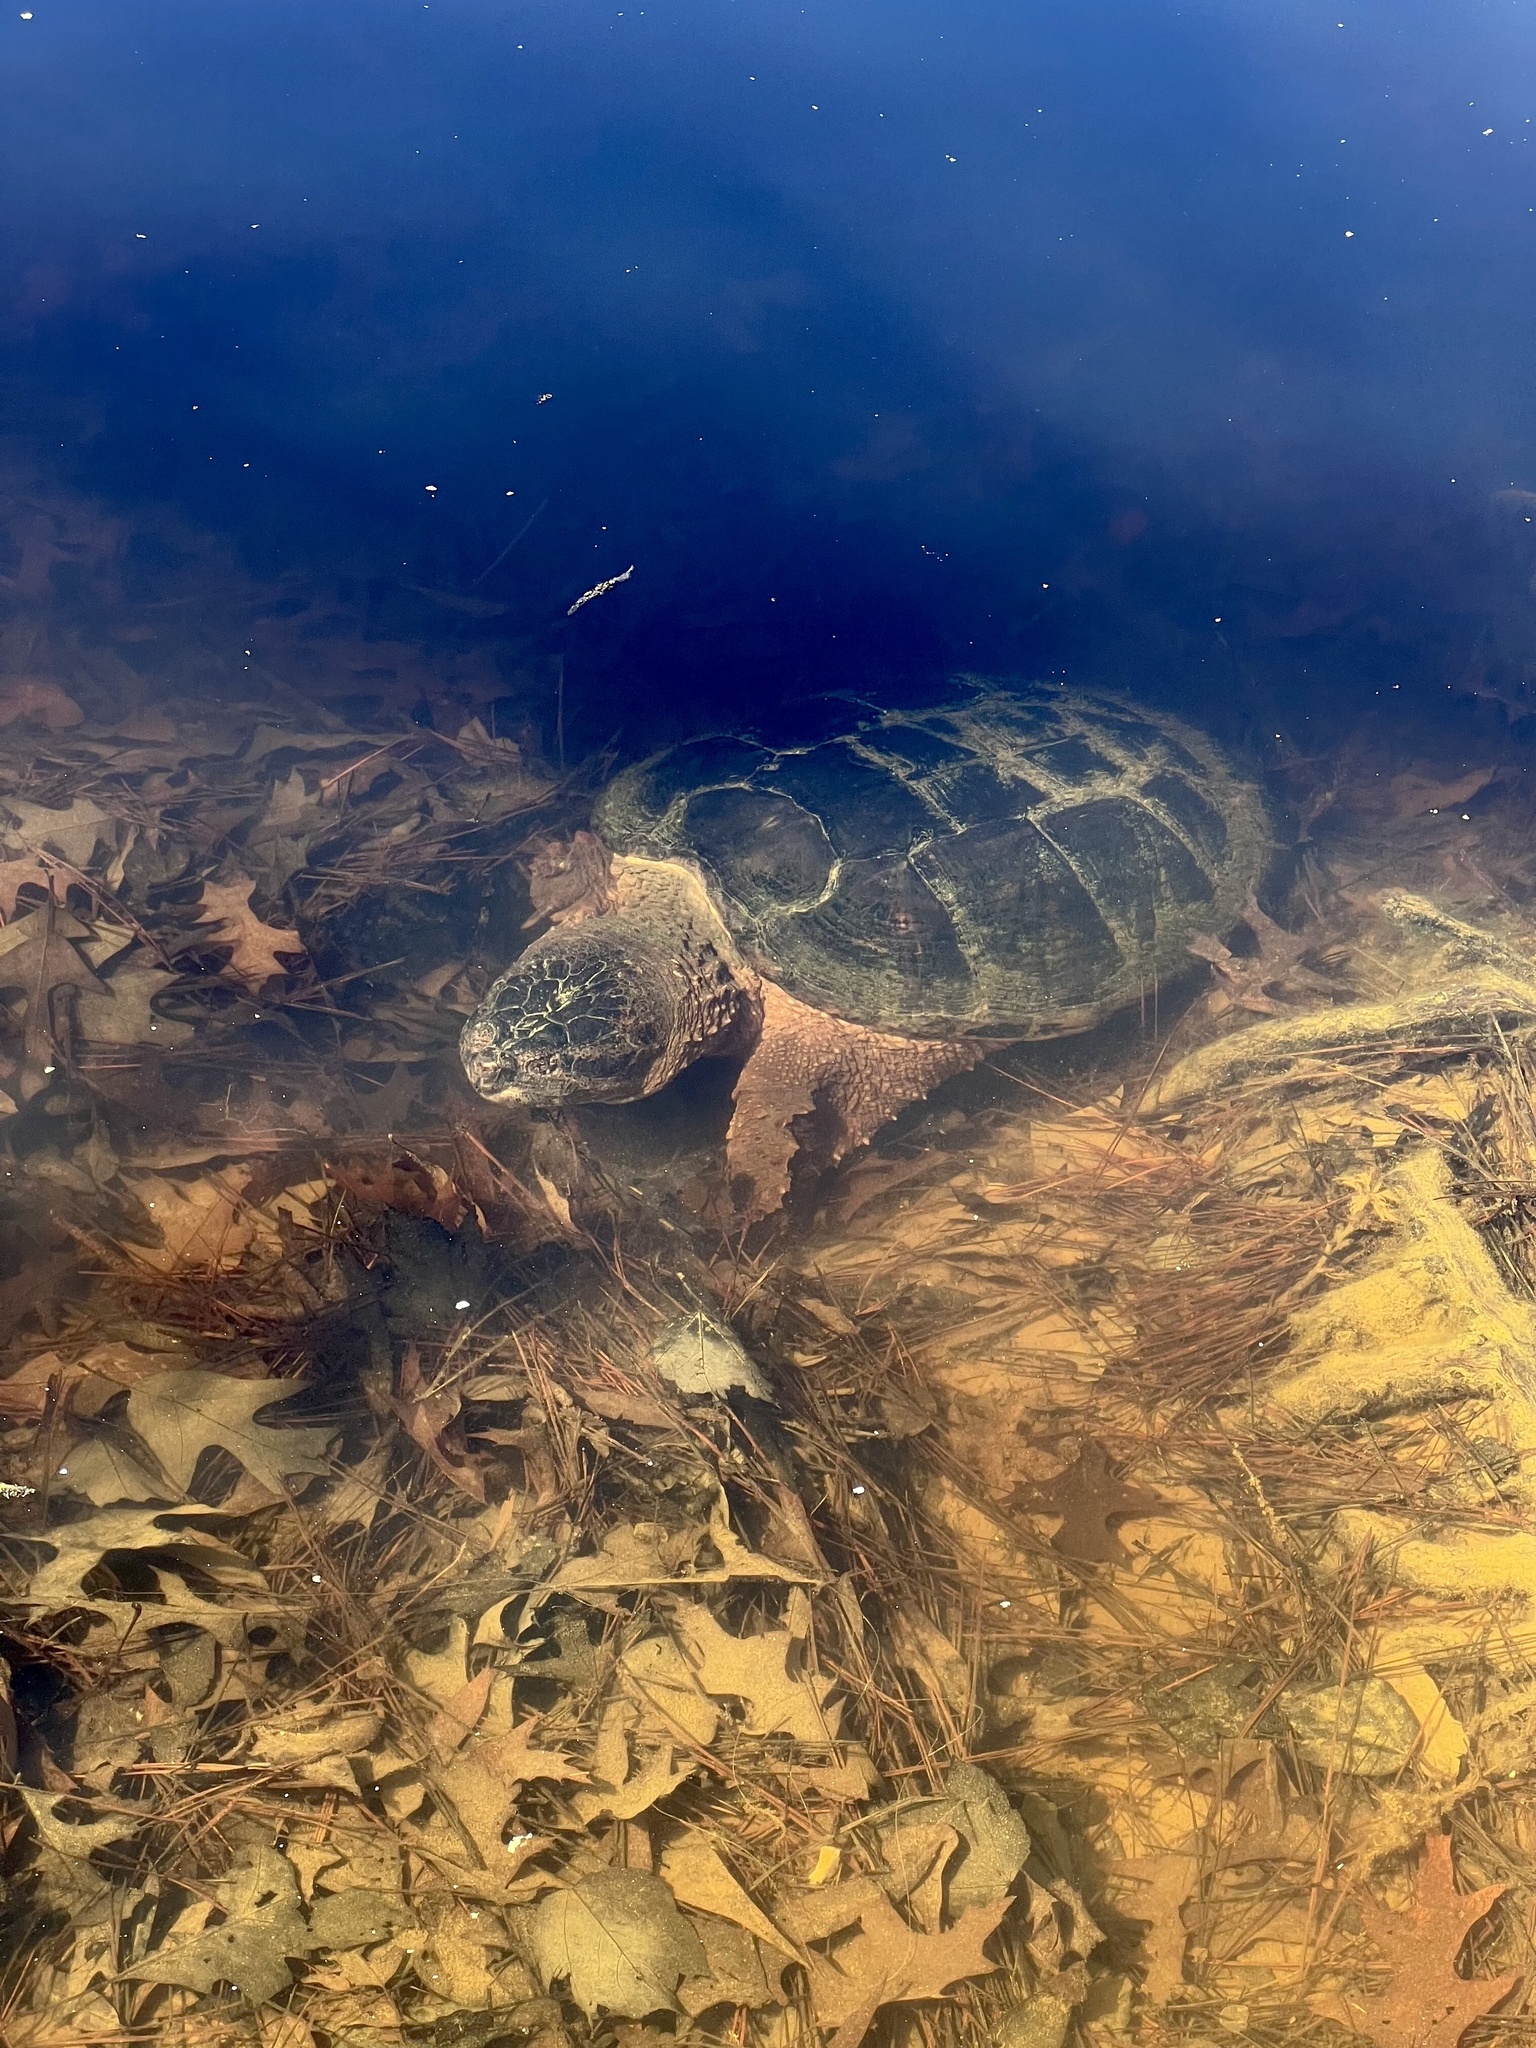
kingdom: Animalia
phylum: Chordata
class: Testudines
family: Chelydridae
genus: Chelydra
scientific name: Chelydra serpentina
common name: Common snapping turtle
